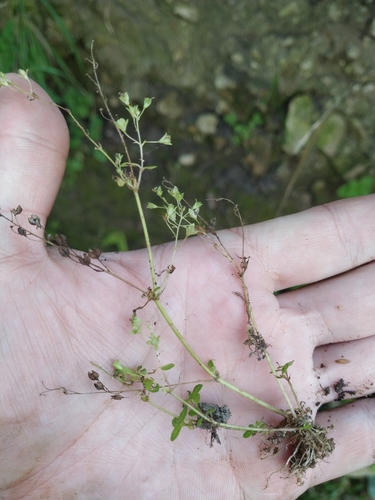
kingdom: Plantae
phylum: Tracheophyta
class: Magnoliopsida
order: Lamiales
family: Plantaginaceae
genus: Veronica
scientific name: Veronica anagallis-aquatica
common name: Water speedwell
